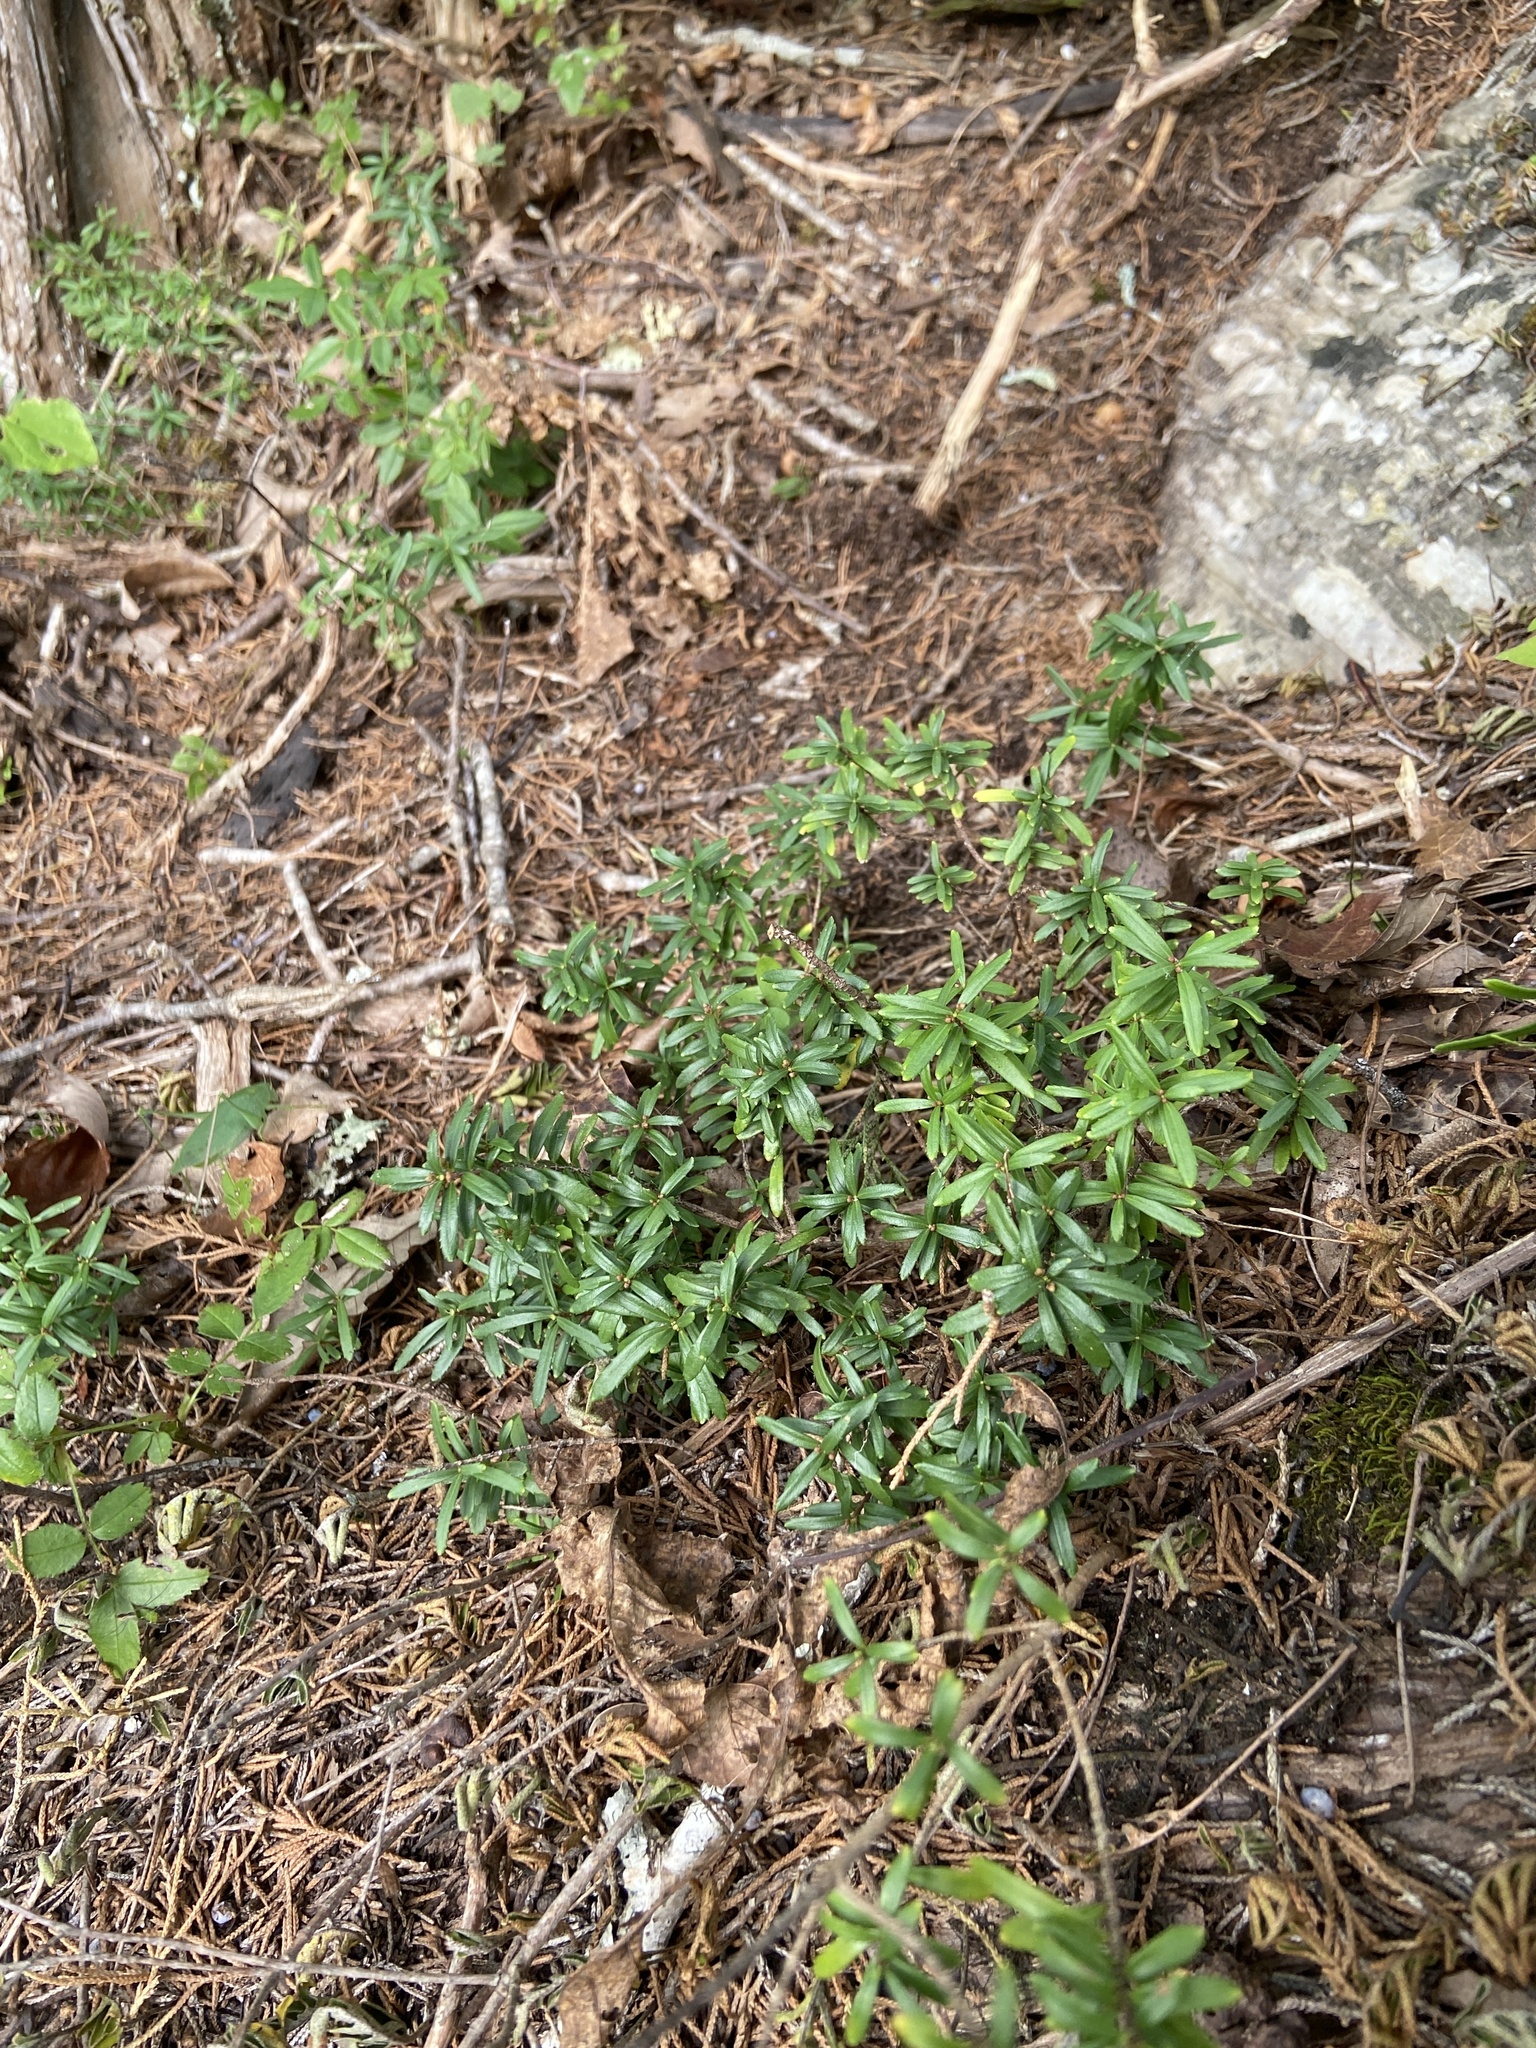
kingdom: Plantae
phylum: Tracheophyta
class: Magnoliopsida
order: Celastrales
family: Celastraceae
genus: Paxistima
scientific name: Paxistima canbyi
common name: Cliffgreen
